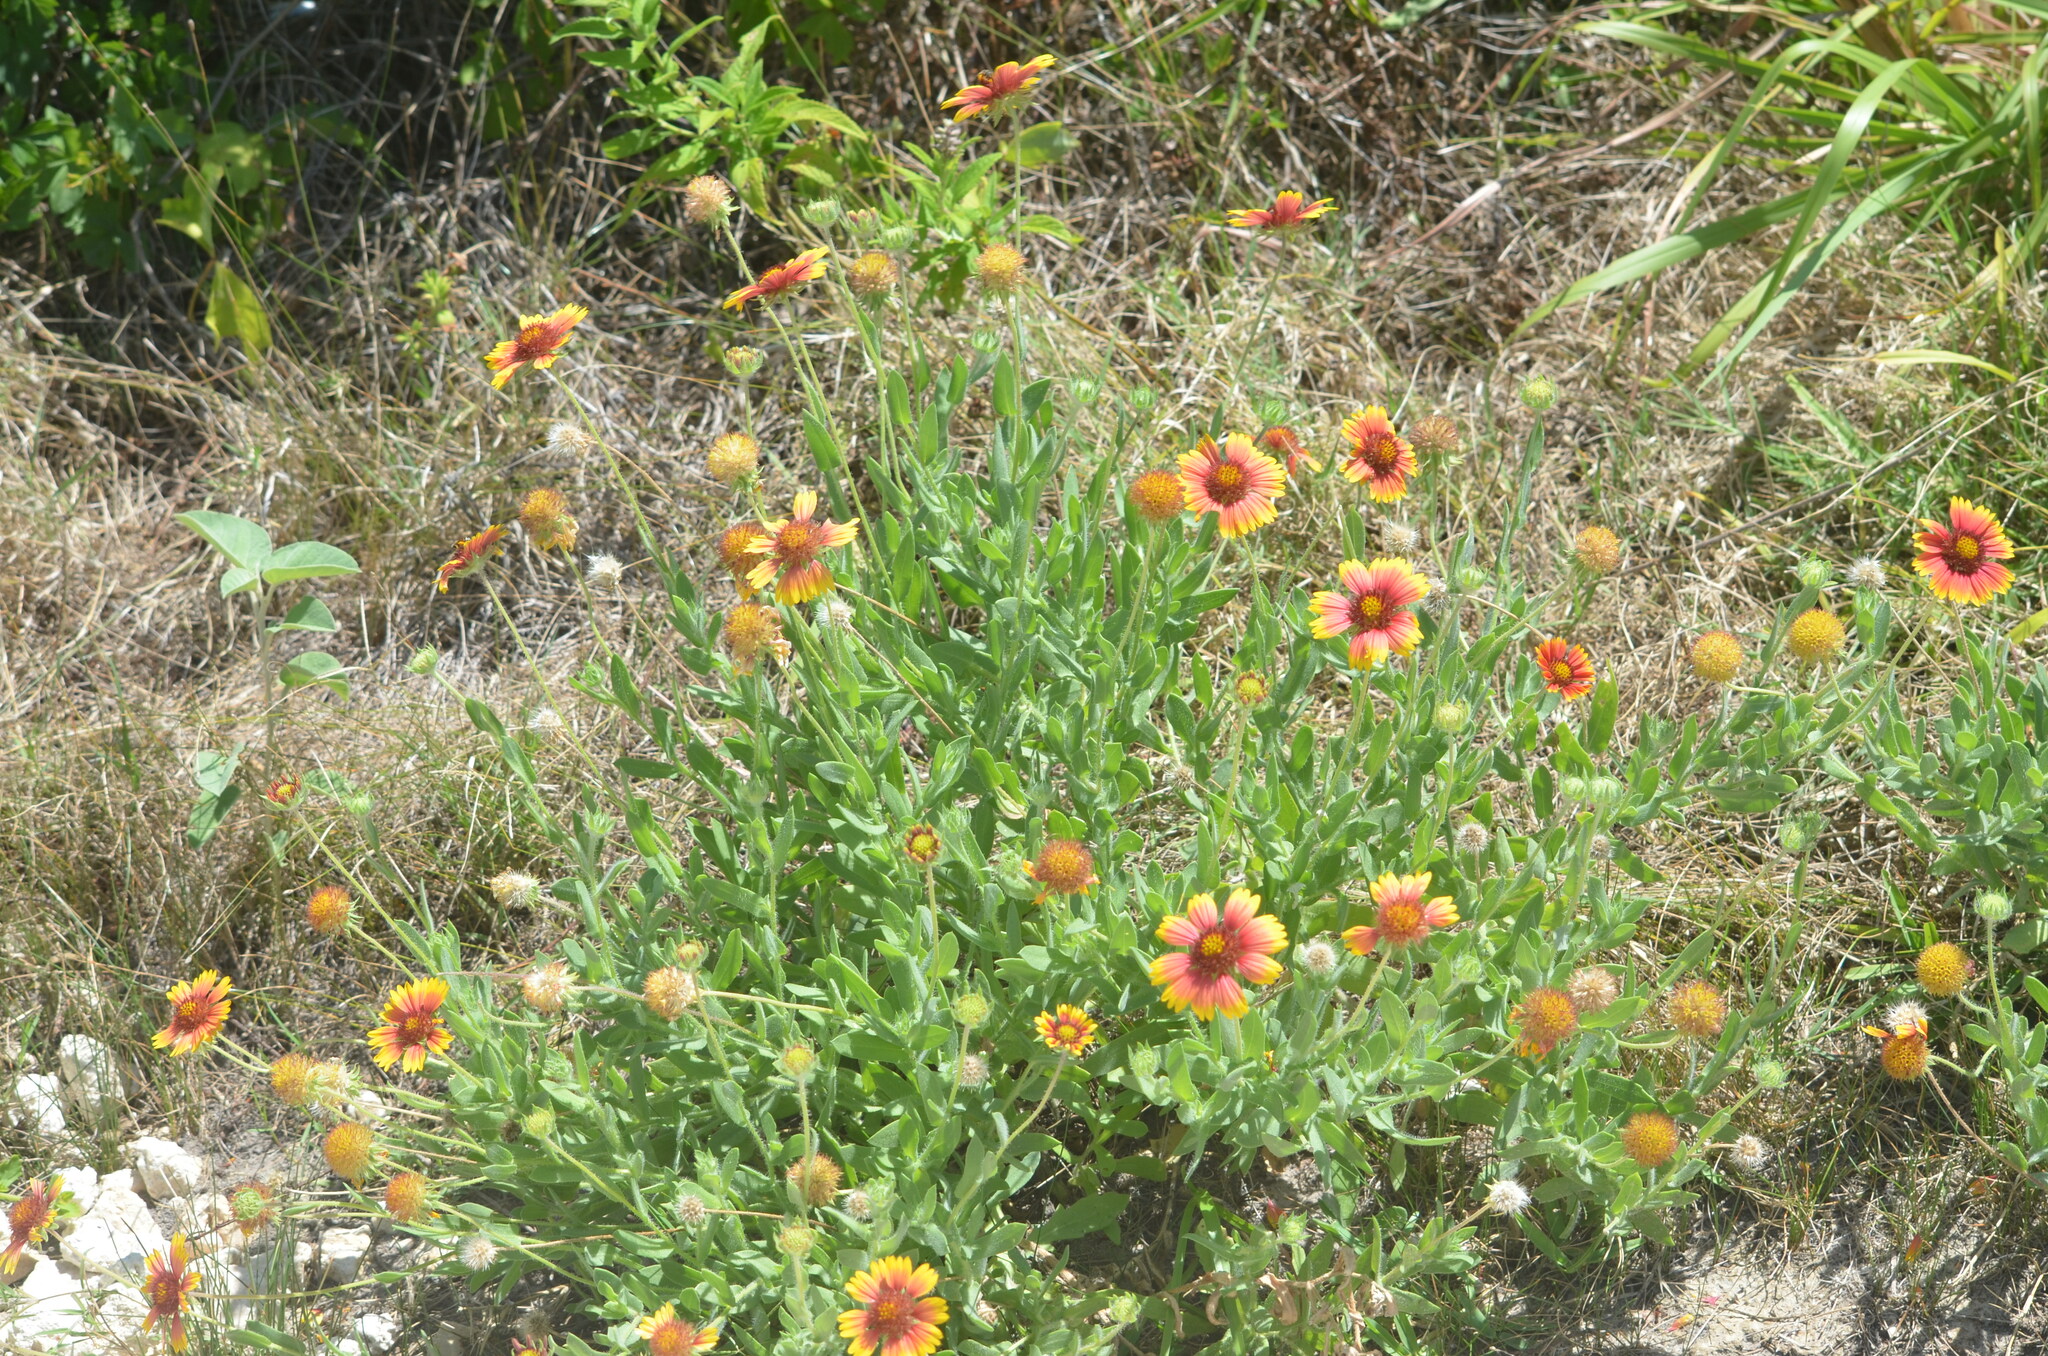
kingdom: Plantae
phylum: Tracheophyta
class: Magnoliopsida
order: Asterales
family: Asteraceae
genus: Gaillardia
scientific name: Gaillardia pulchella
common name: Firewheel
